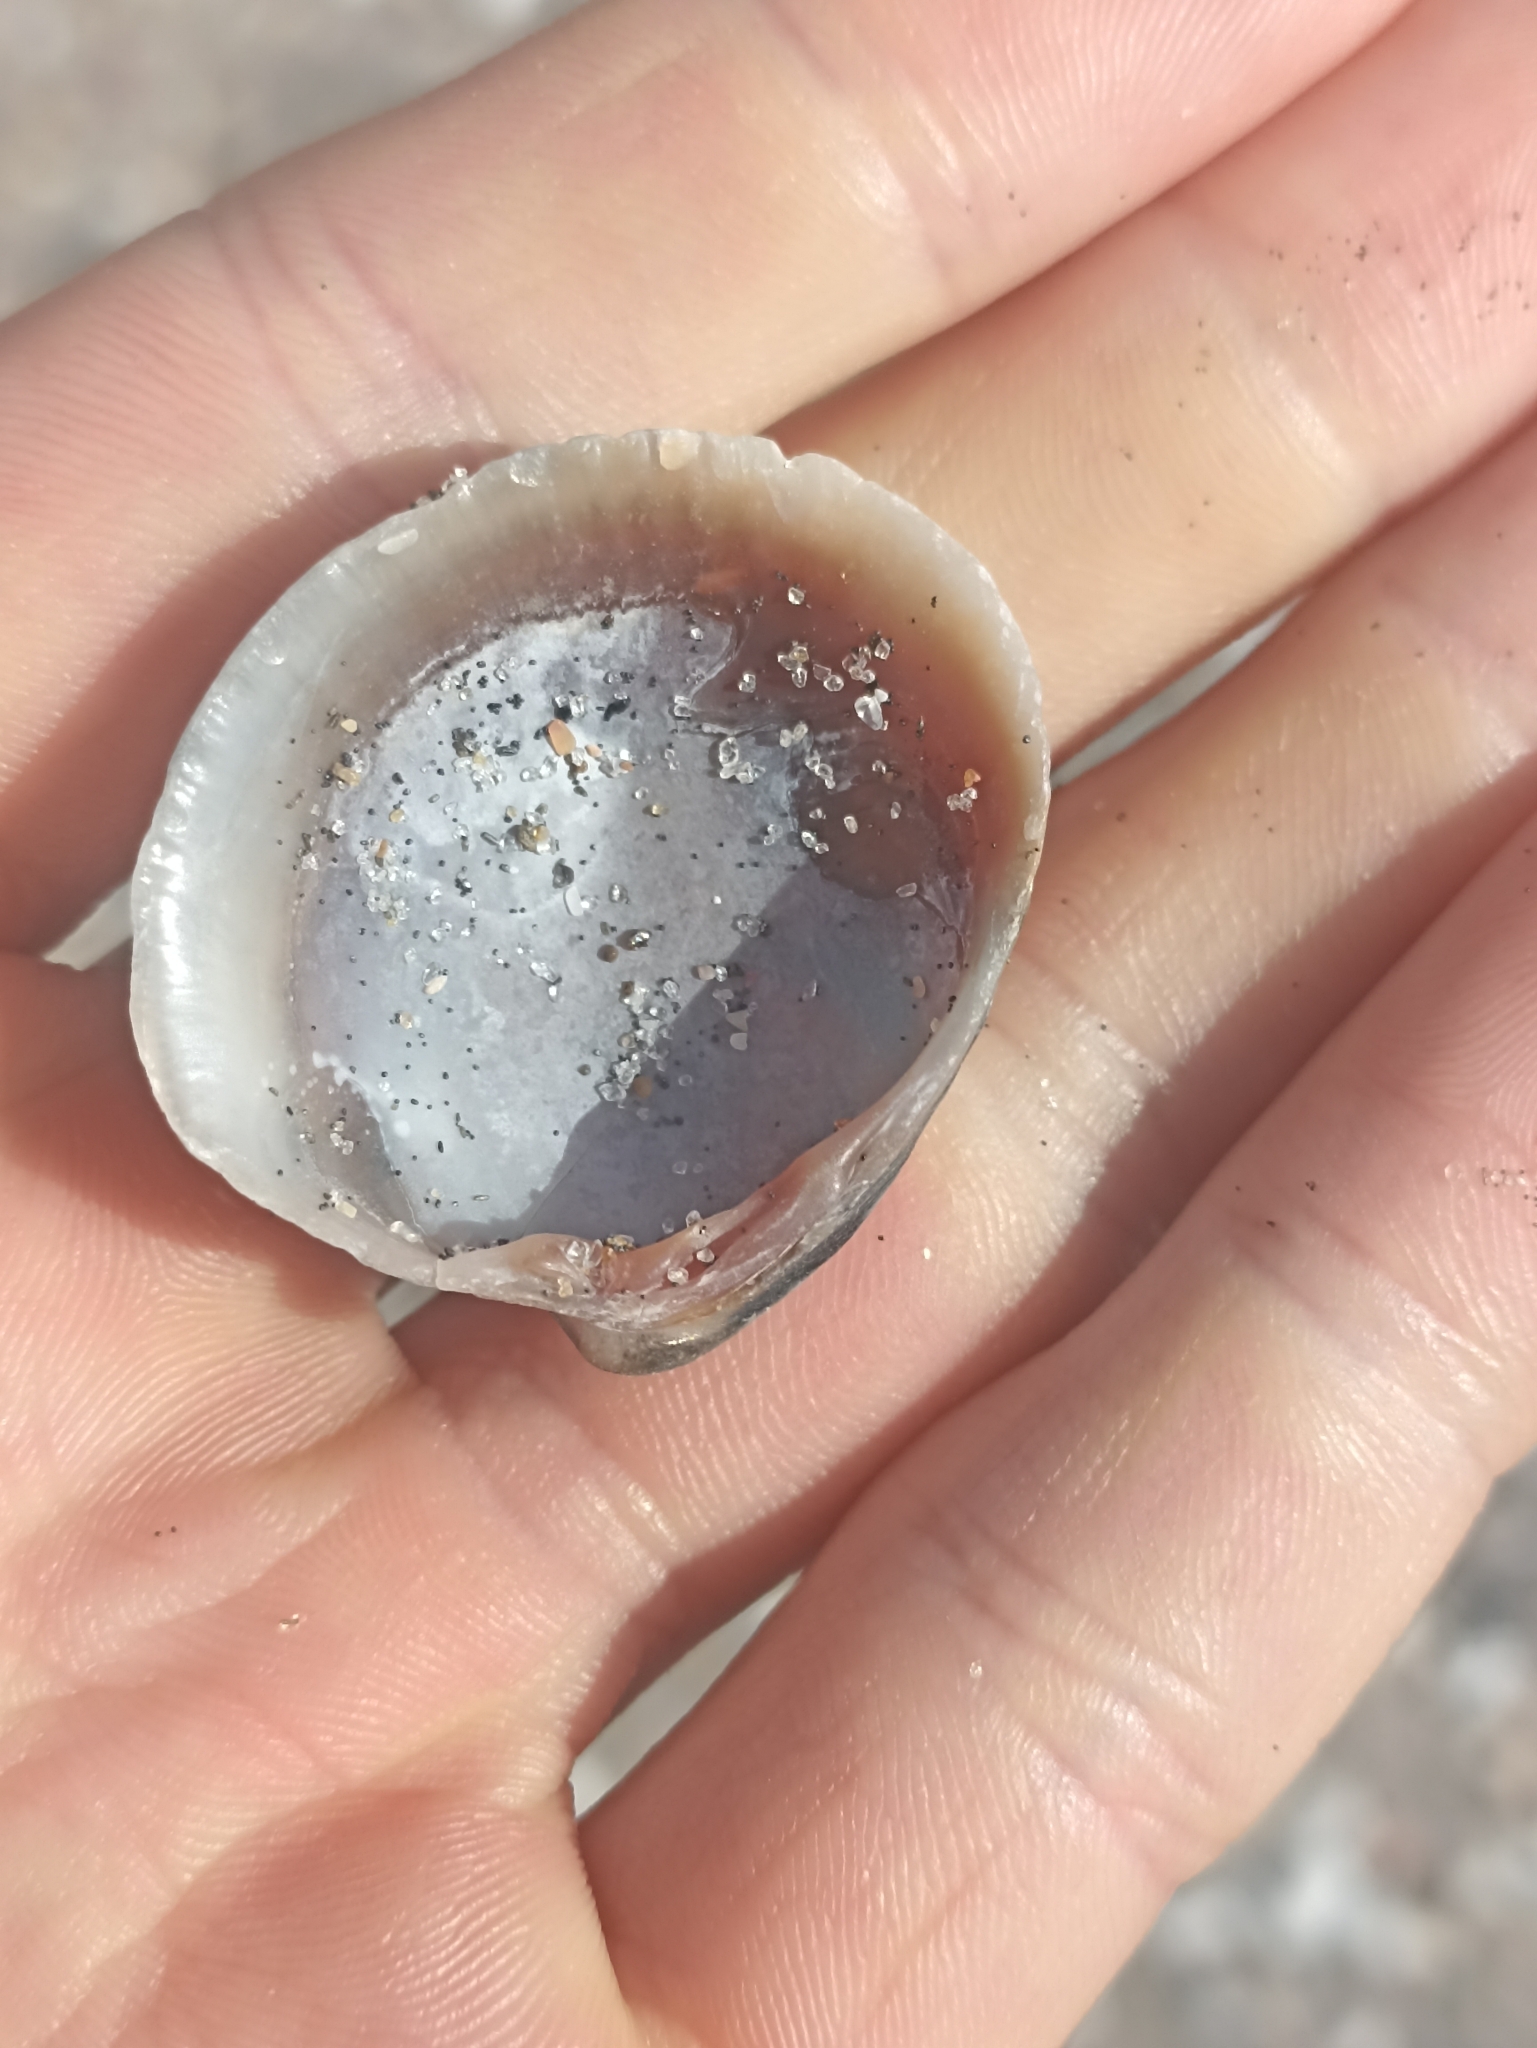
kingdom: Animalia
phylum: Mollusca
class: Bivalvia
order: Venerida
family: Veneridae
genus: Austrovenus
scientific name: Austrovenus stutchburyi
